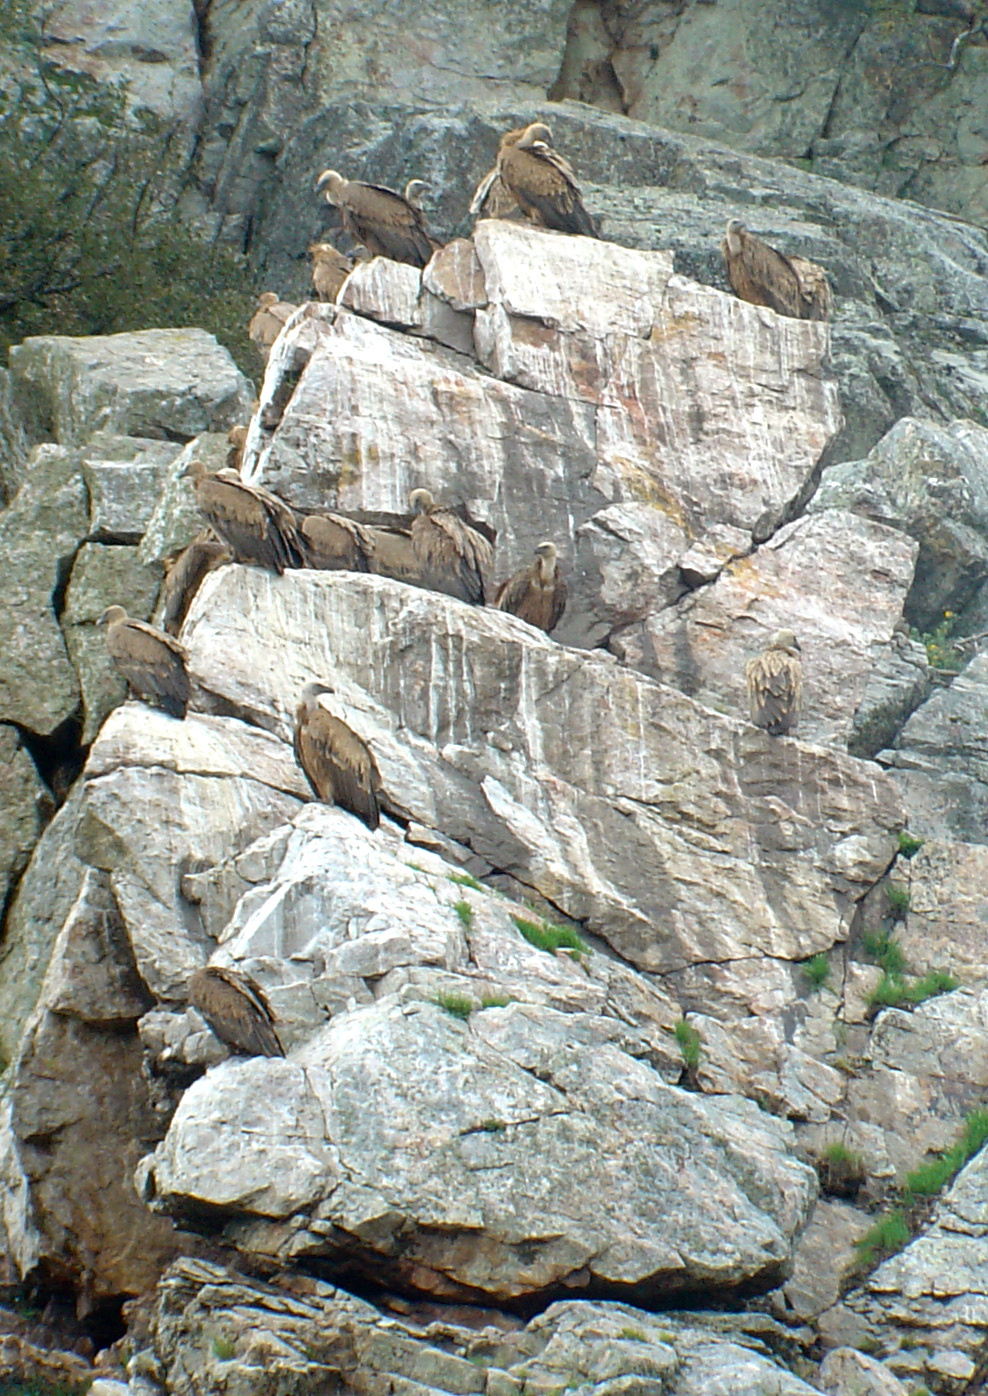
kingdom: Animalia
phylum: Chordata
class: Aves
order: Accipitriformes
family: Accipitridae
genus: Gyps
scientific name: Gyps fulvus
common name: Griffon vulture
